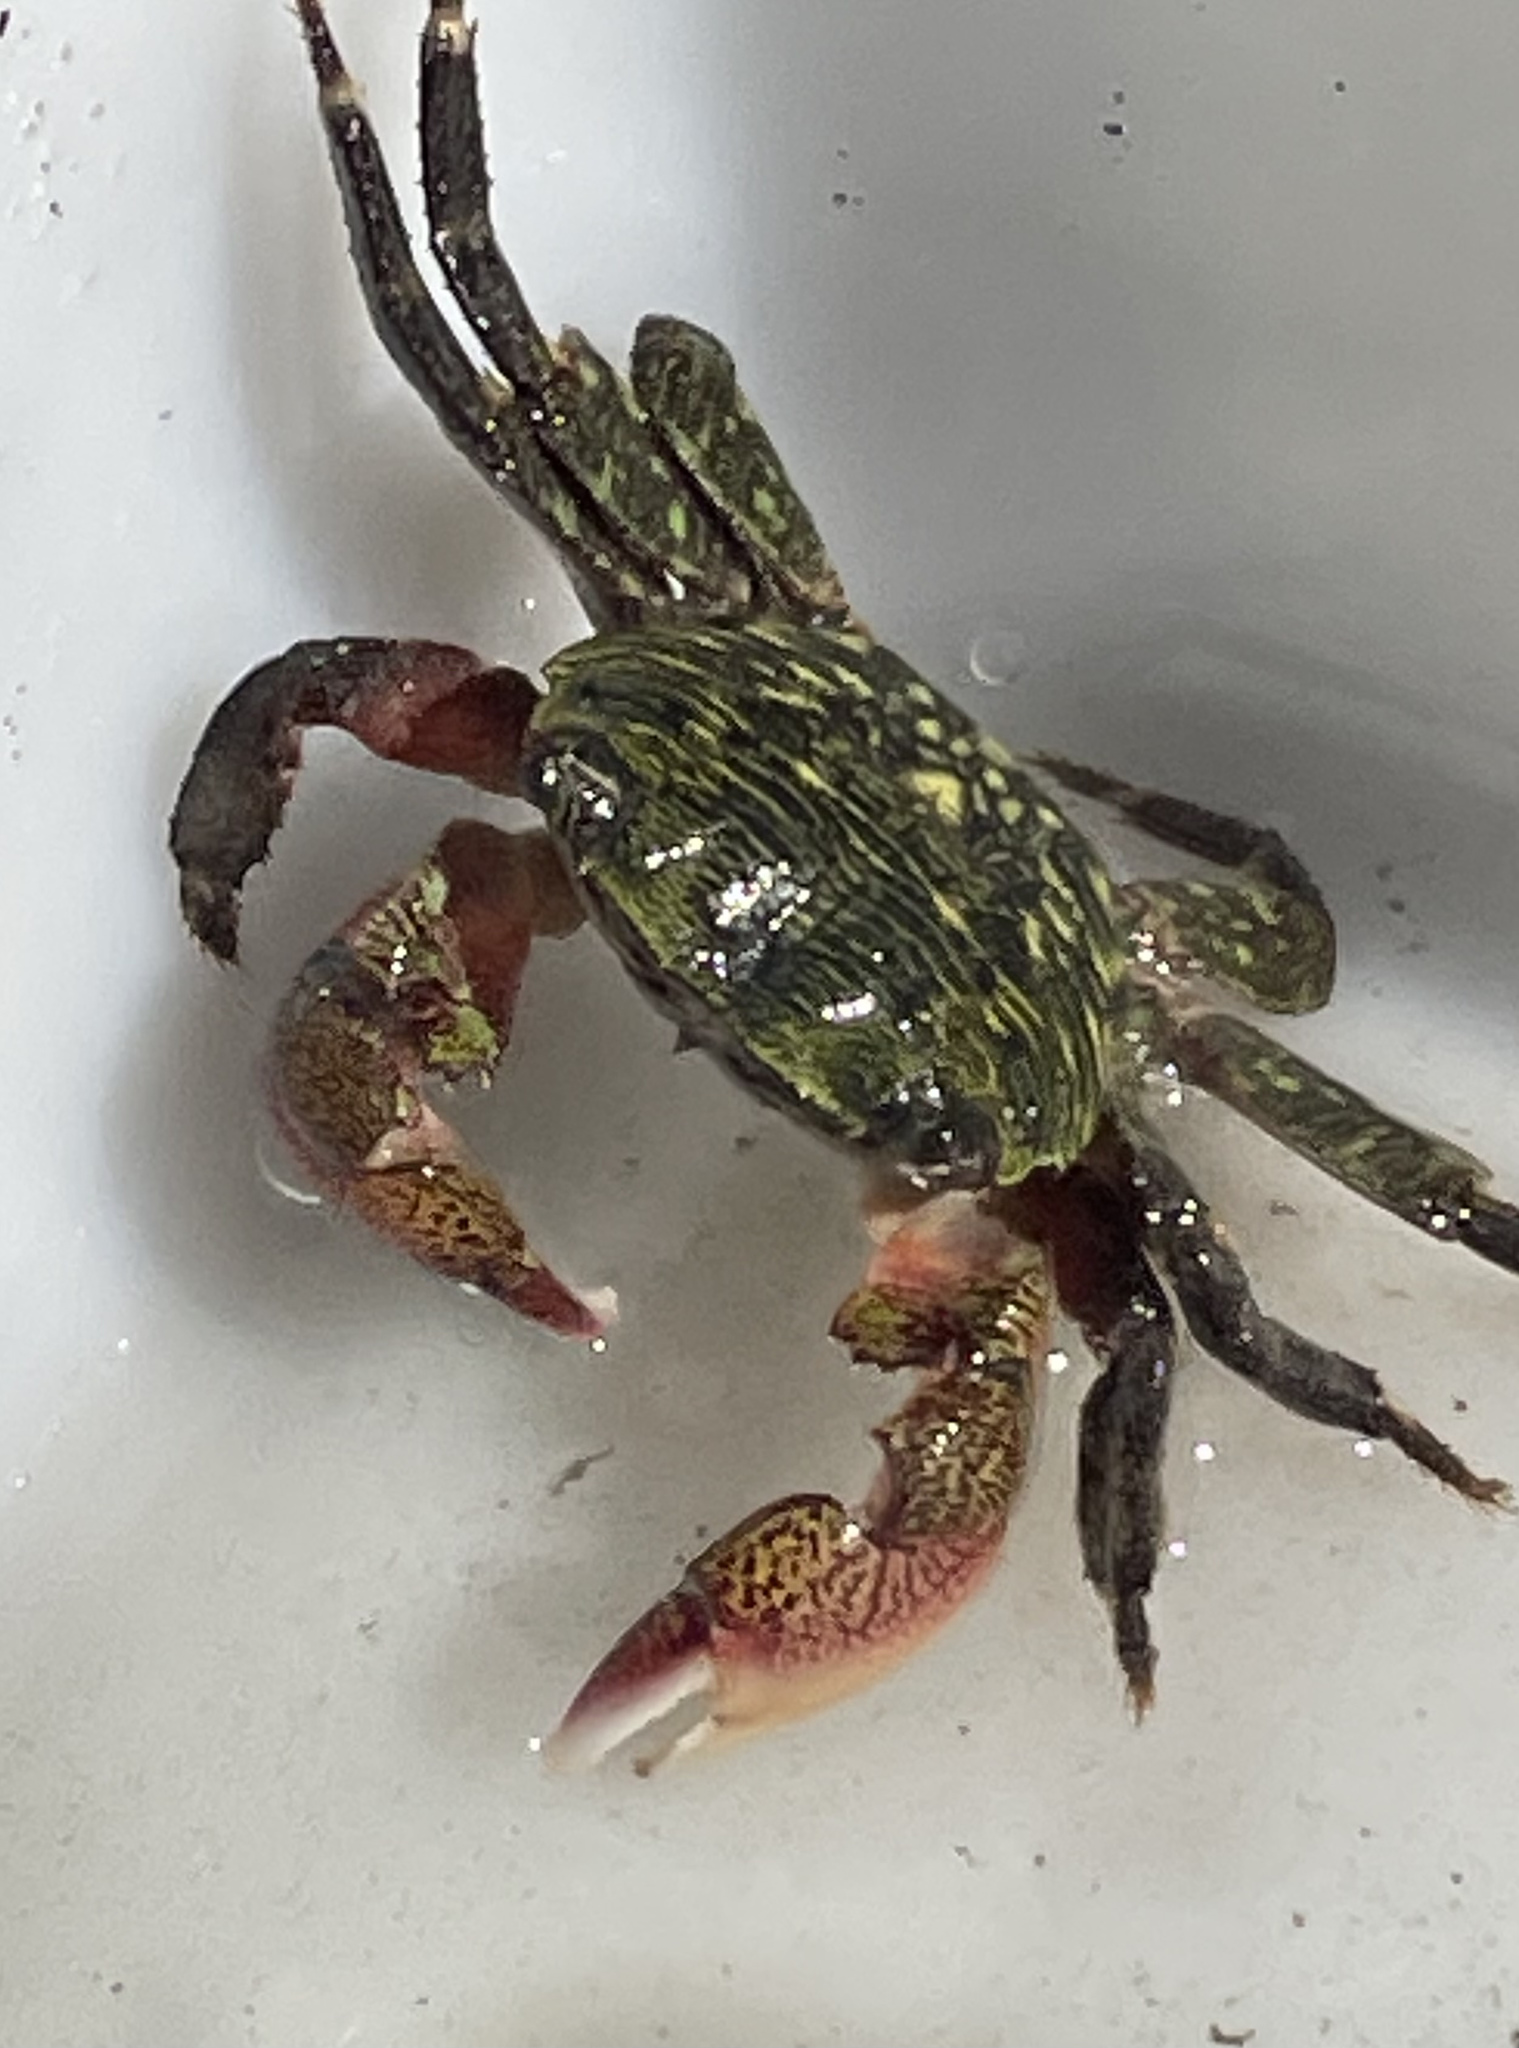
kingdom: Animalia
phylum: Arthropoda
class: Malacostraca
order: Decapoda
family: Grapsidae
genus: Pachygrapsus
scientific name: Pachygrapsus crassipes
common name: Striped shore crab
